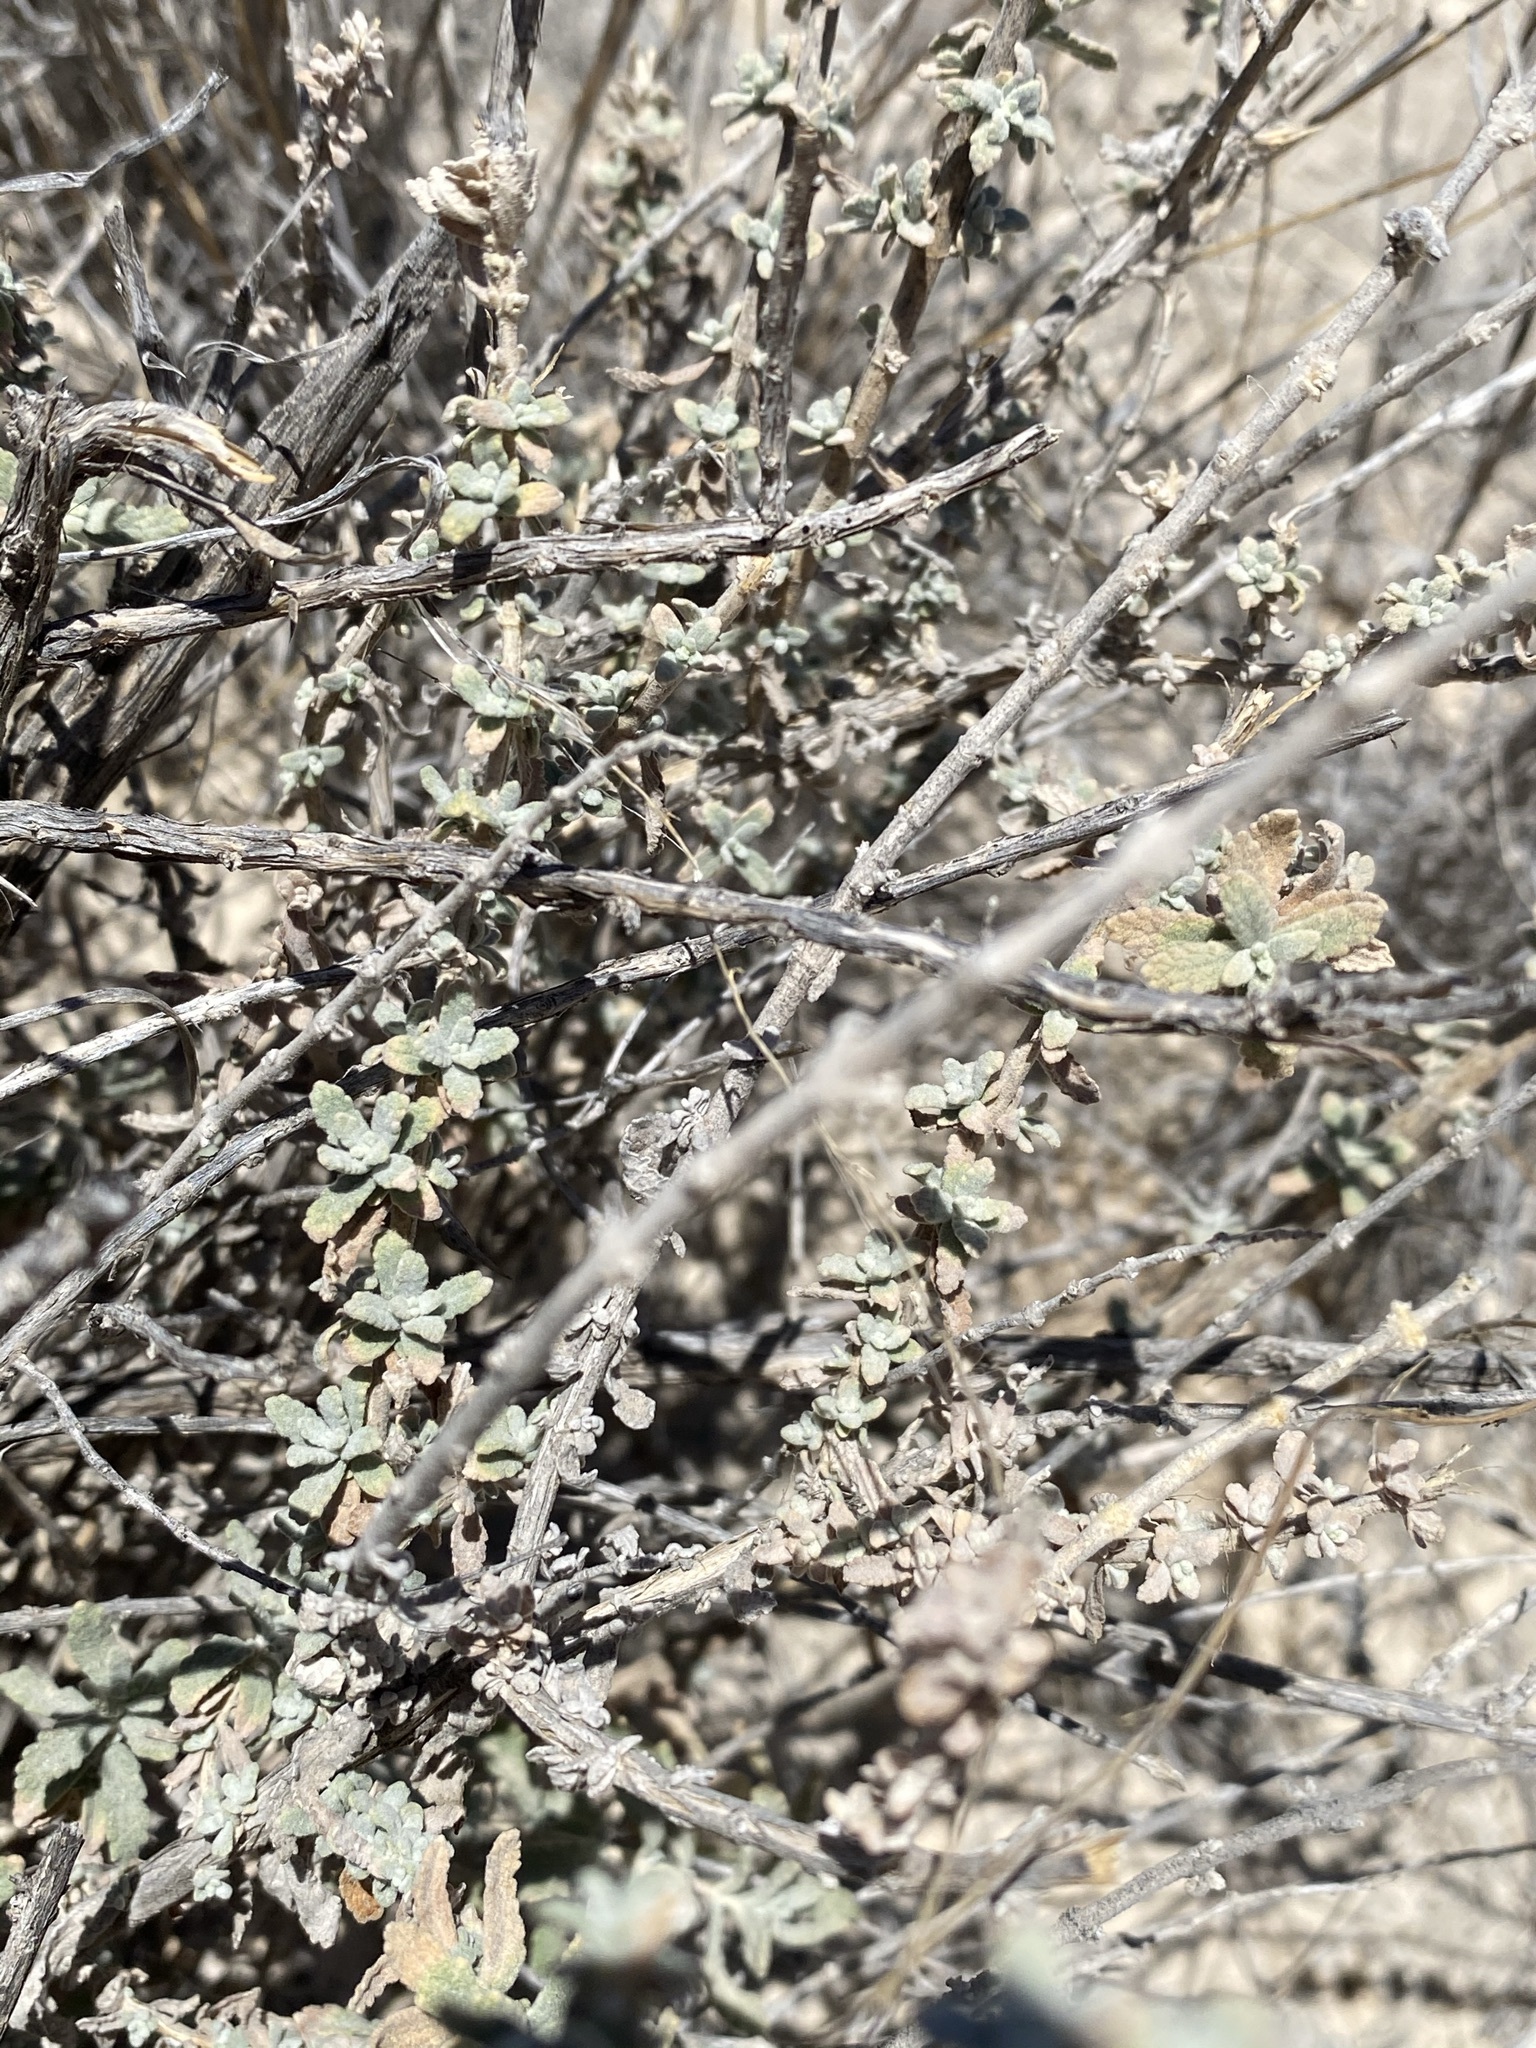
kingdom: Plantae
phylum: Tracheophyta
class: Magnoliopsida
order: Lamiales
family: Scrophulariaceae
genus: Buddleja
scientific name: Buddleja scordioides
